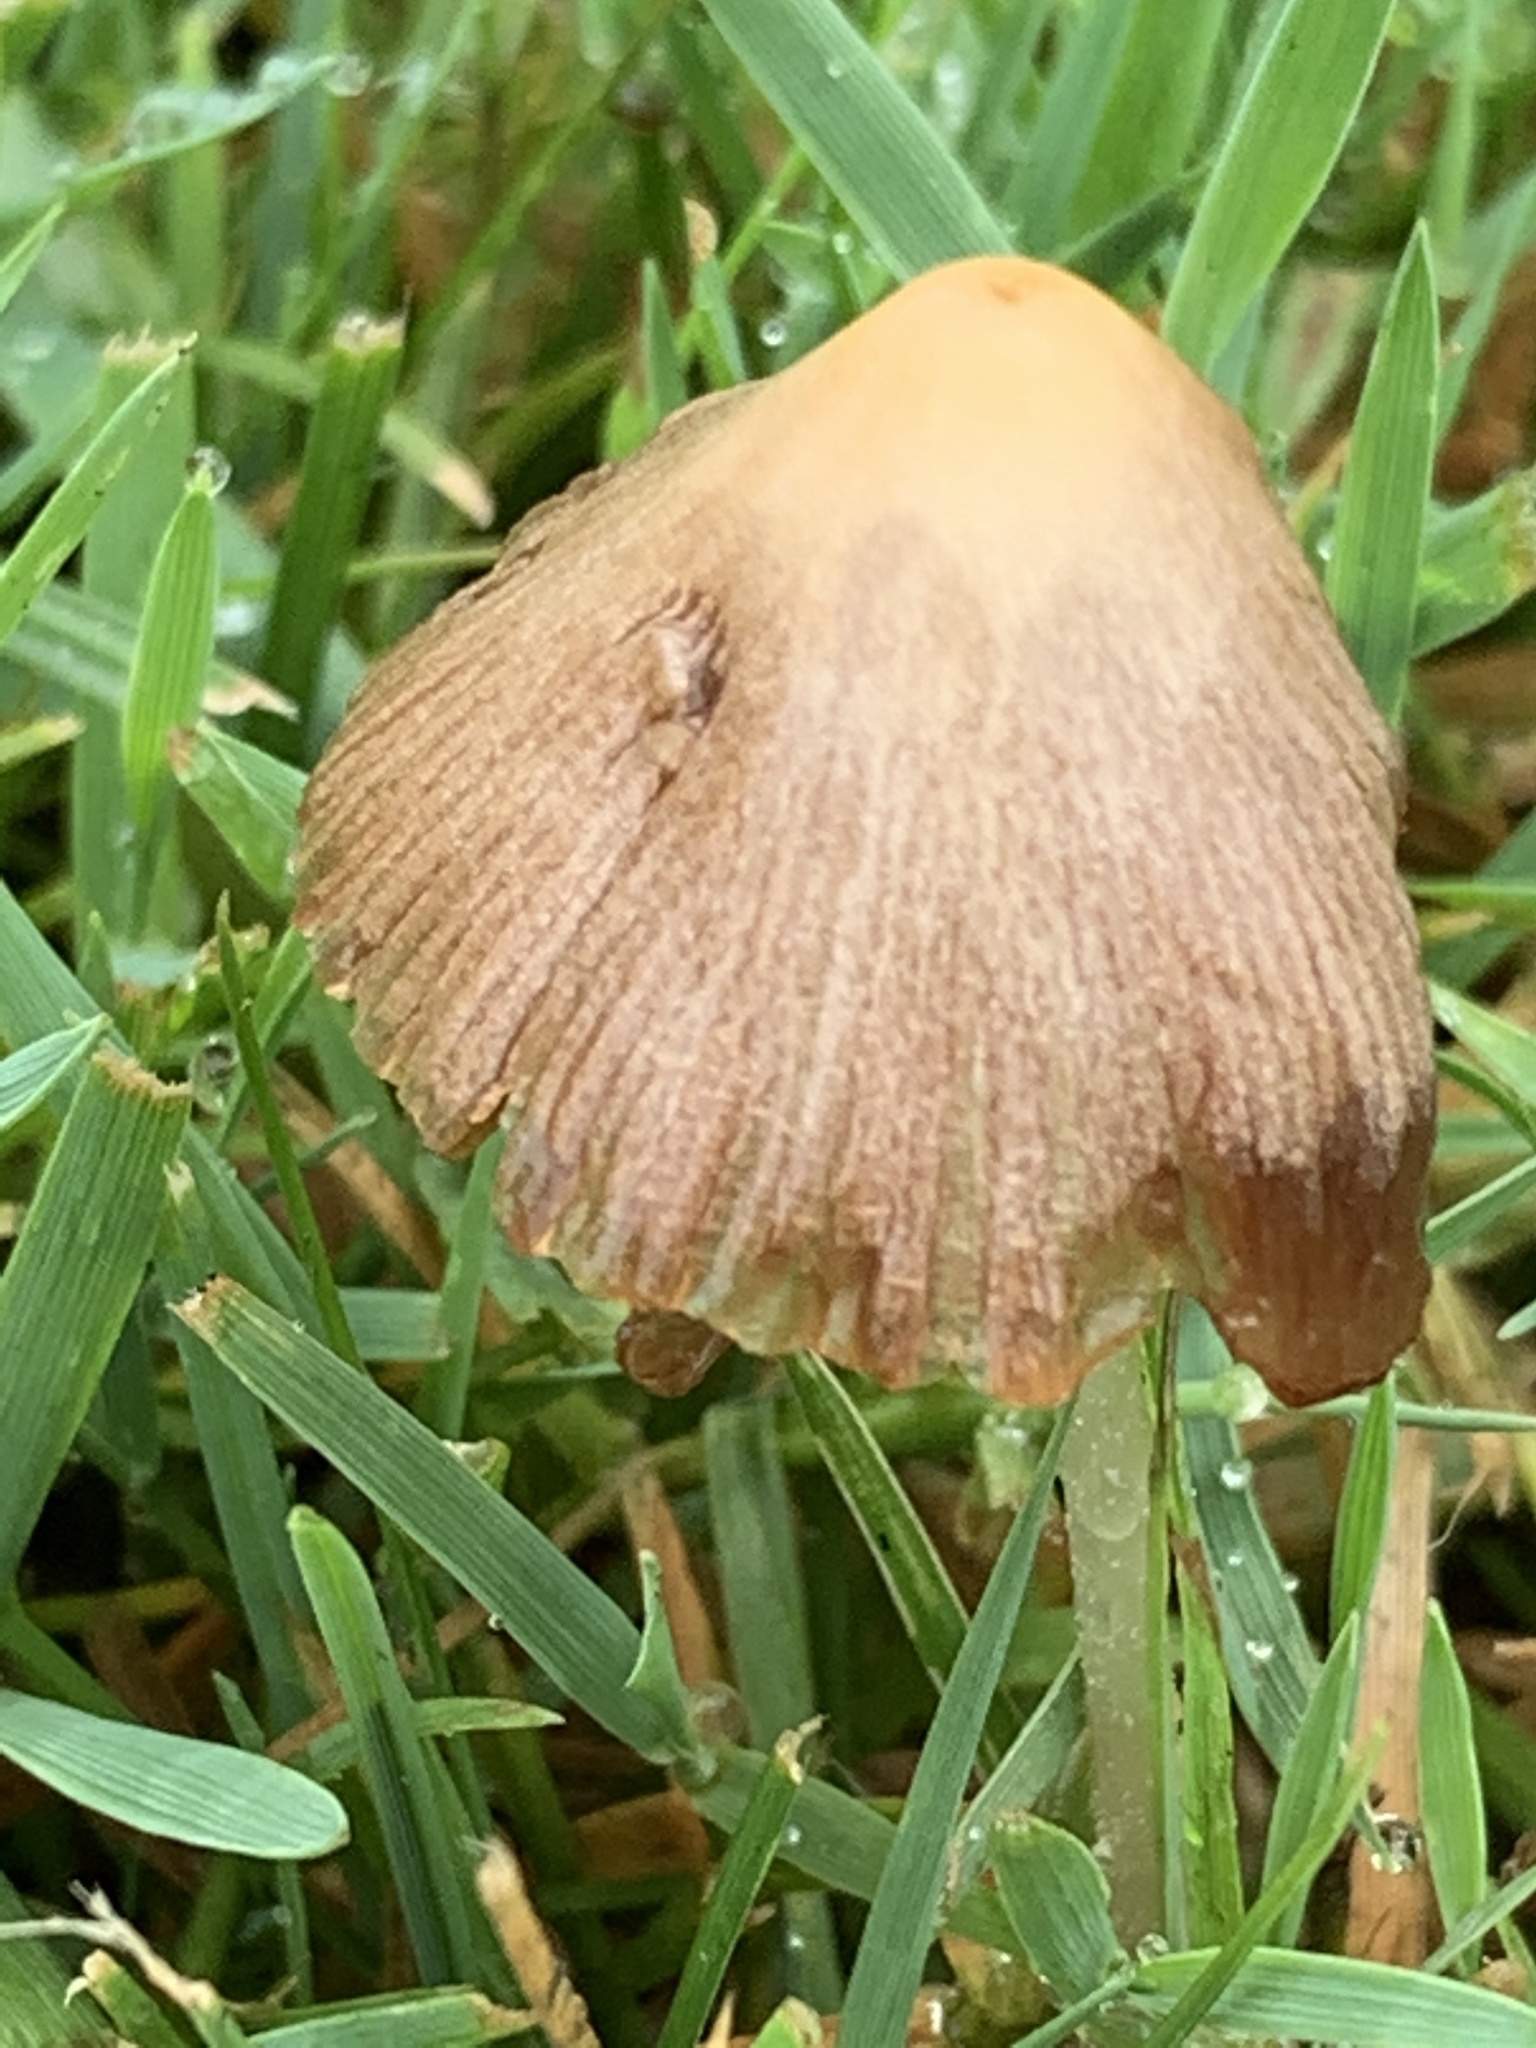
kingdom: Fungi
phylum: Basidiomycota
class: Agaricomycetes
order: Agaricales
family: Bolbitiaceae
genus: Conocybe
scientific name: Conocybe apala
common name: Milky conecap
